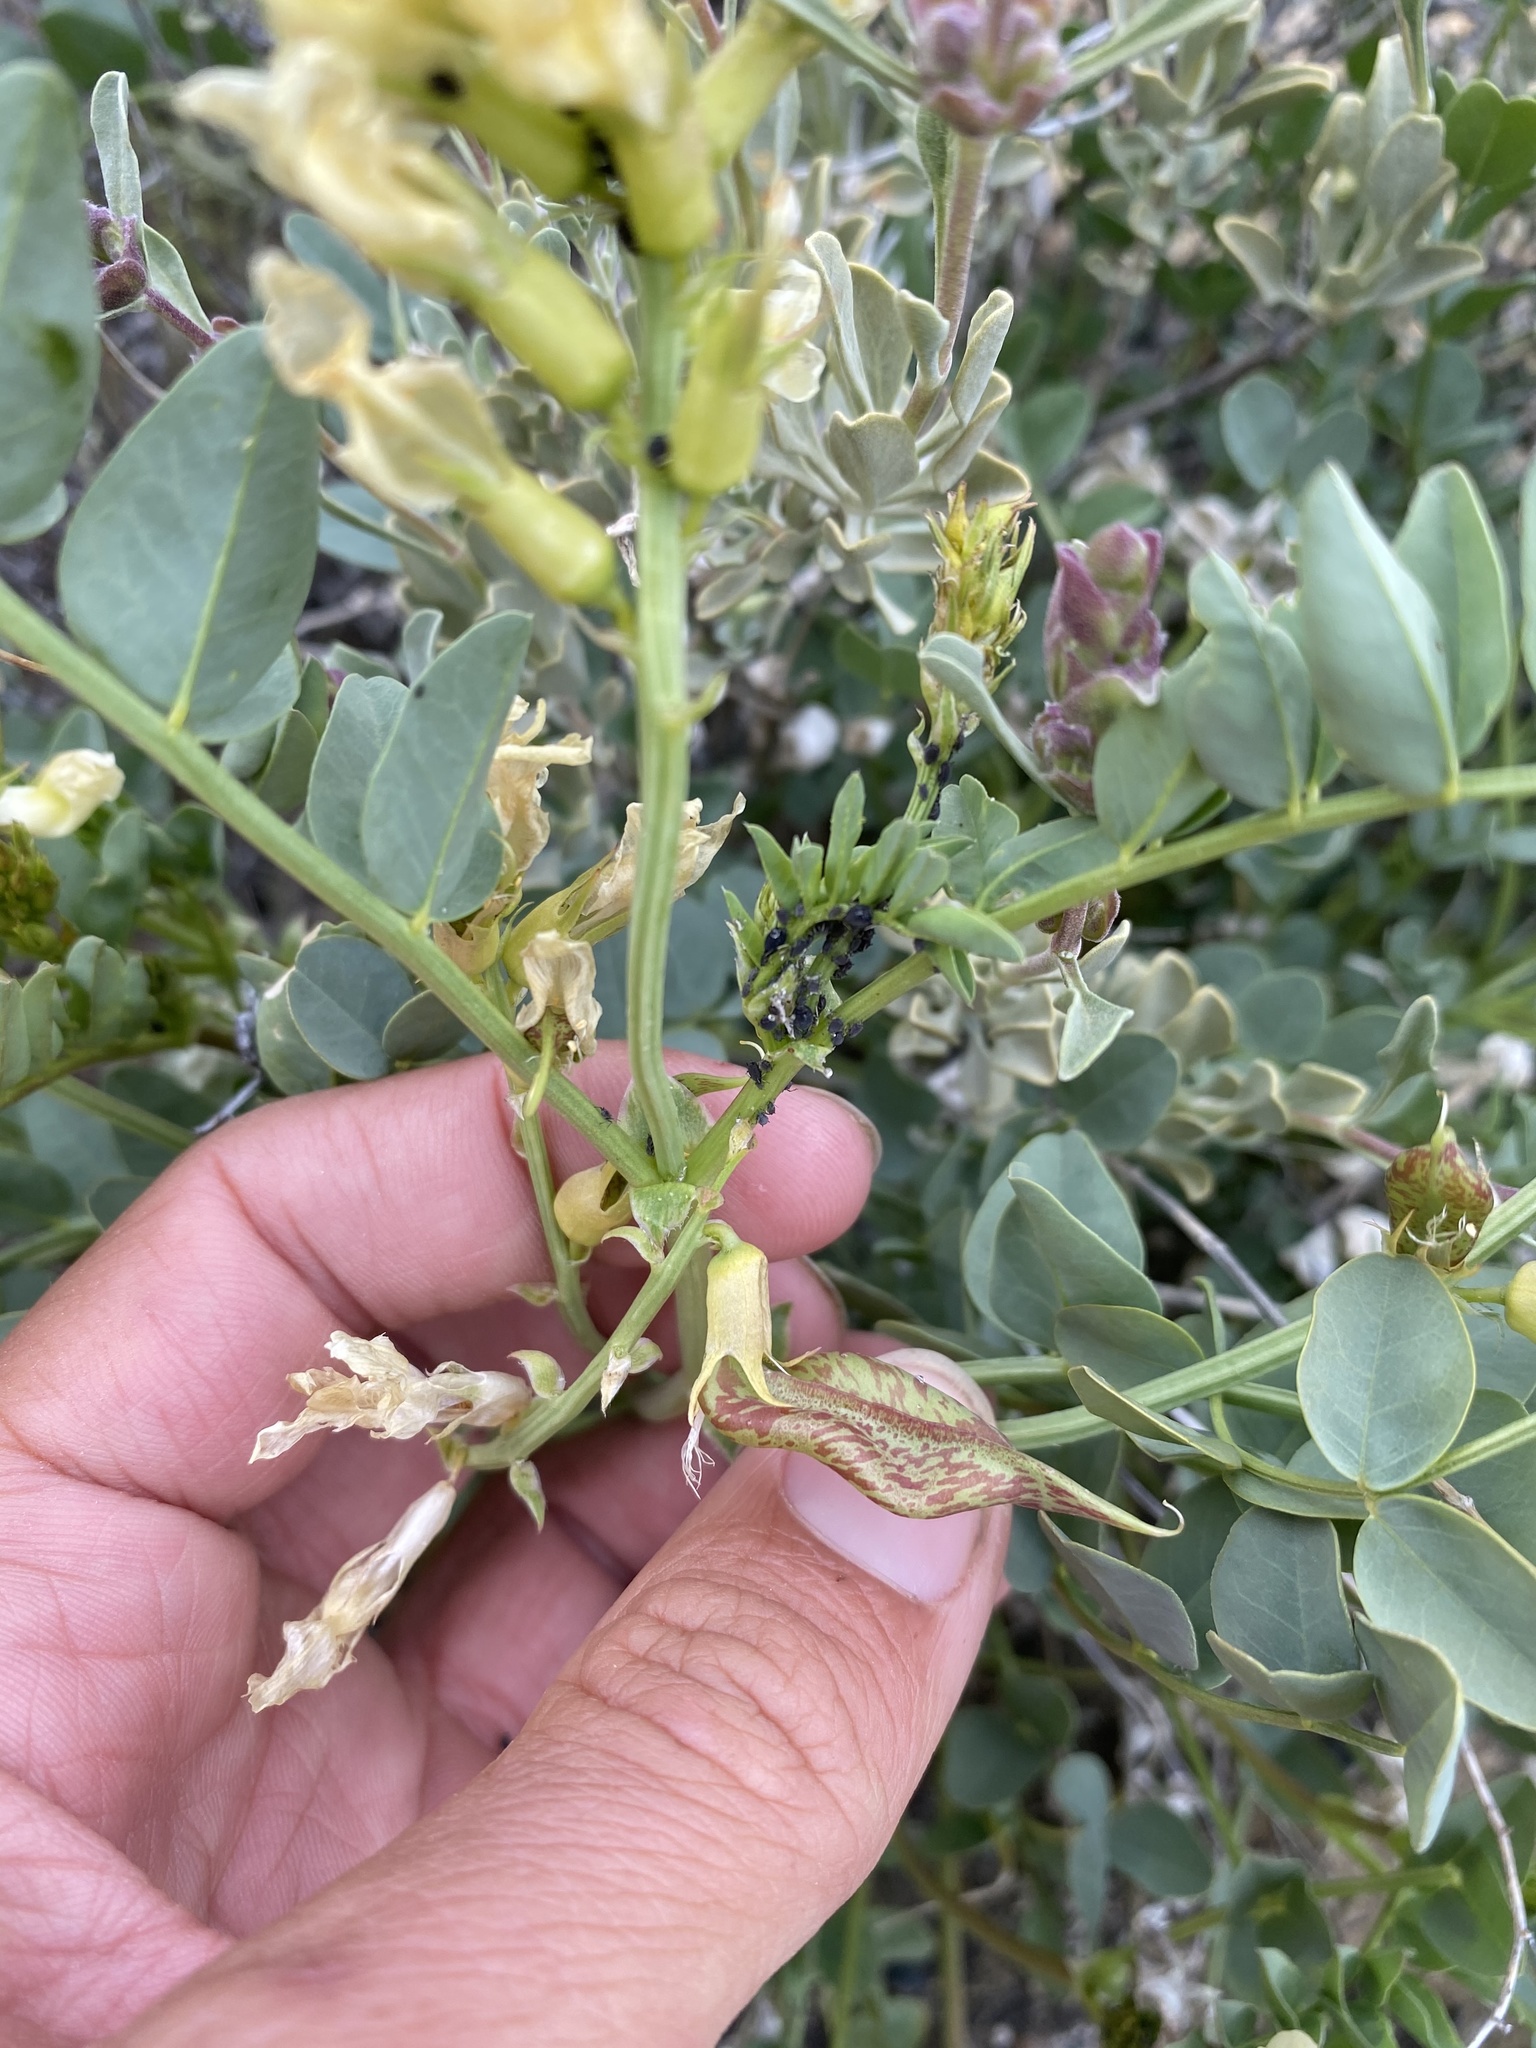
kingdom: Plantae
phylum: Tracheophyta
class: Magnoliopsida
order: Fabales
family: Fabaceae
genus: Astragalus
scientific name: Astragalus beckwithii
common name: Beckwith's milk-vetch
